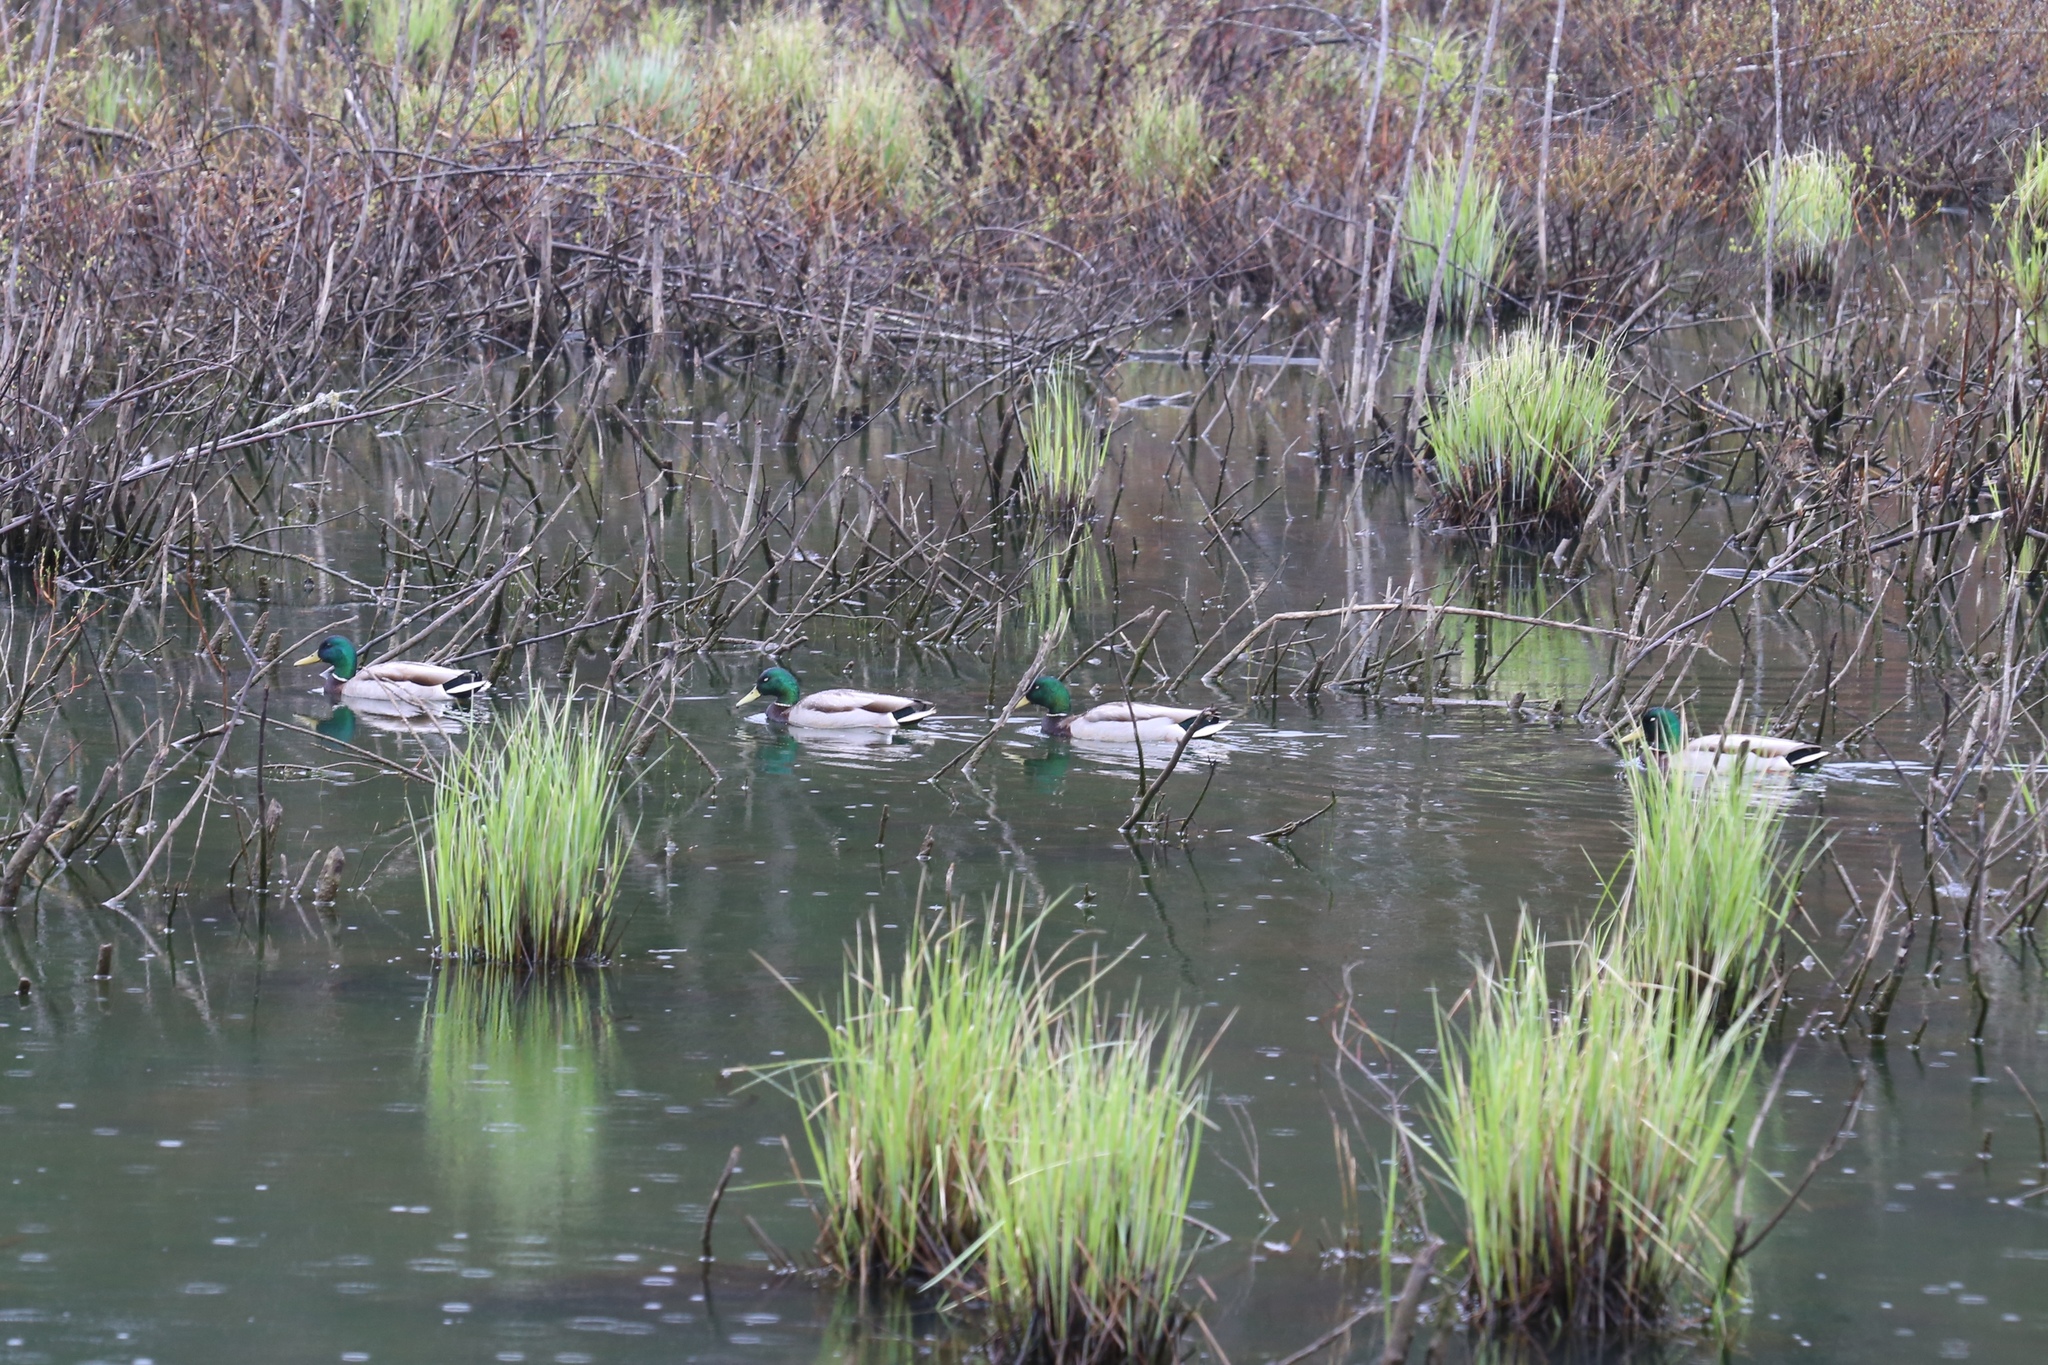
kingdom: Animalia
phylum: Chordata
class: Aves
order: Anseriformes
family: Anatidae
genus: Anas
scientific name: Anas platyrhynchos
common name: Mallard
